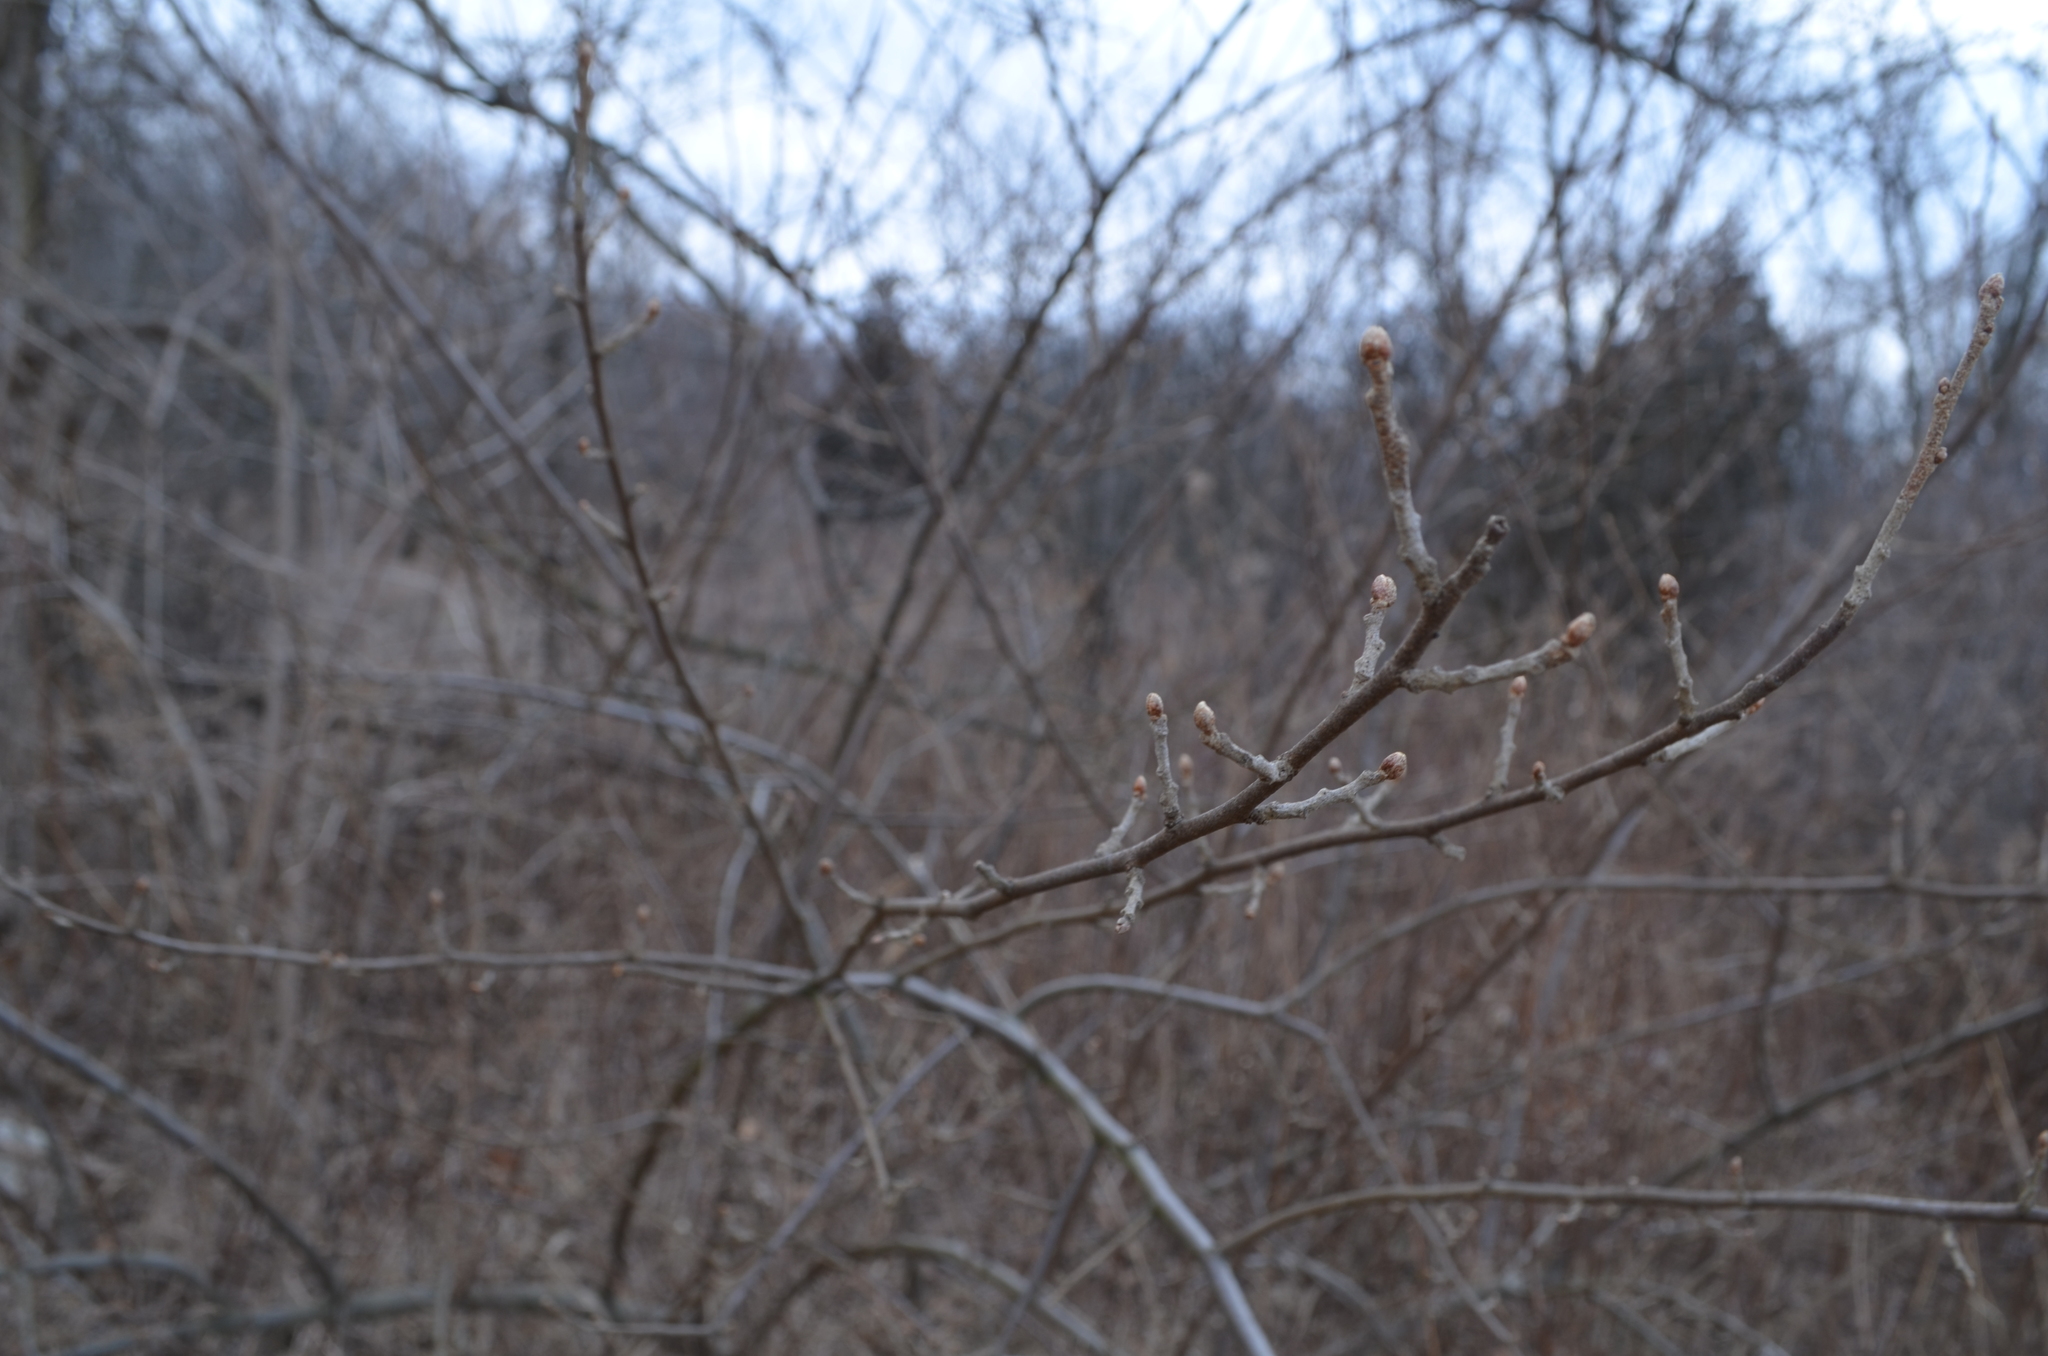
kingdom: Plantae
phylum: Tracheophyta
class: Magnoliopsida
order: Rosales
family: Elaeagnaceae
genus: Elaeagnus
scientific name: Elaeagnus umbellata
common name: Autumn olive
